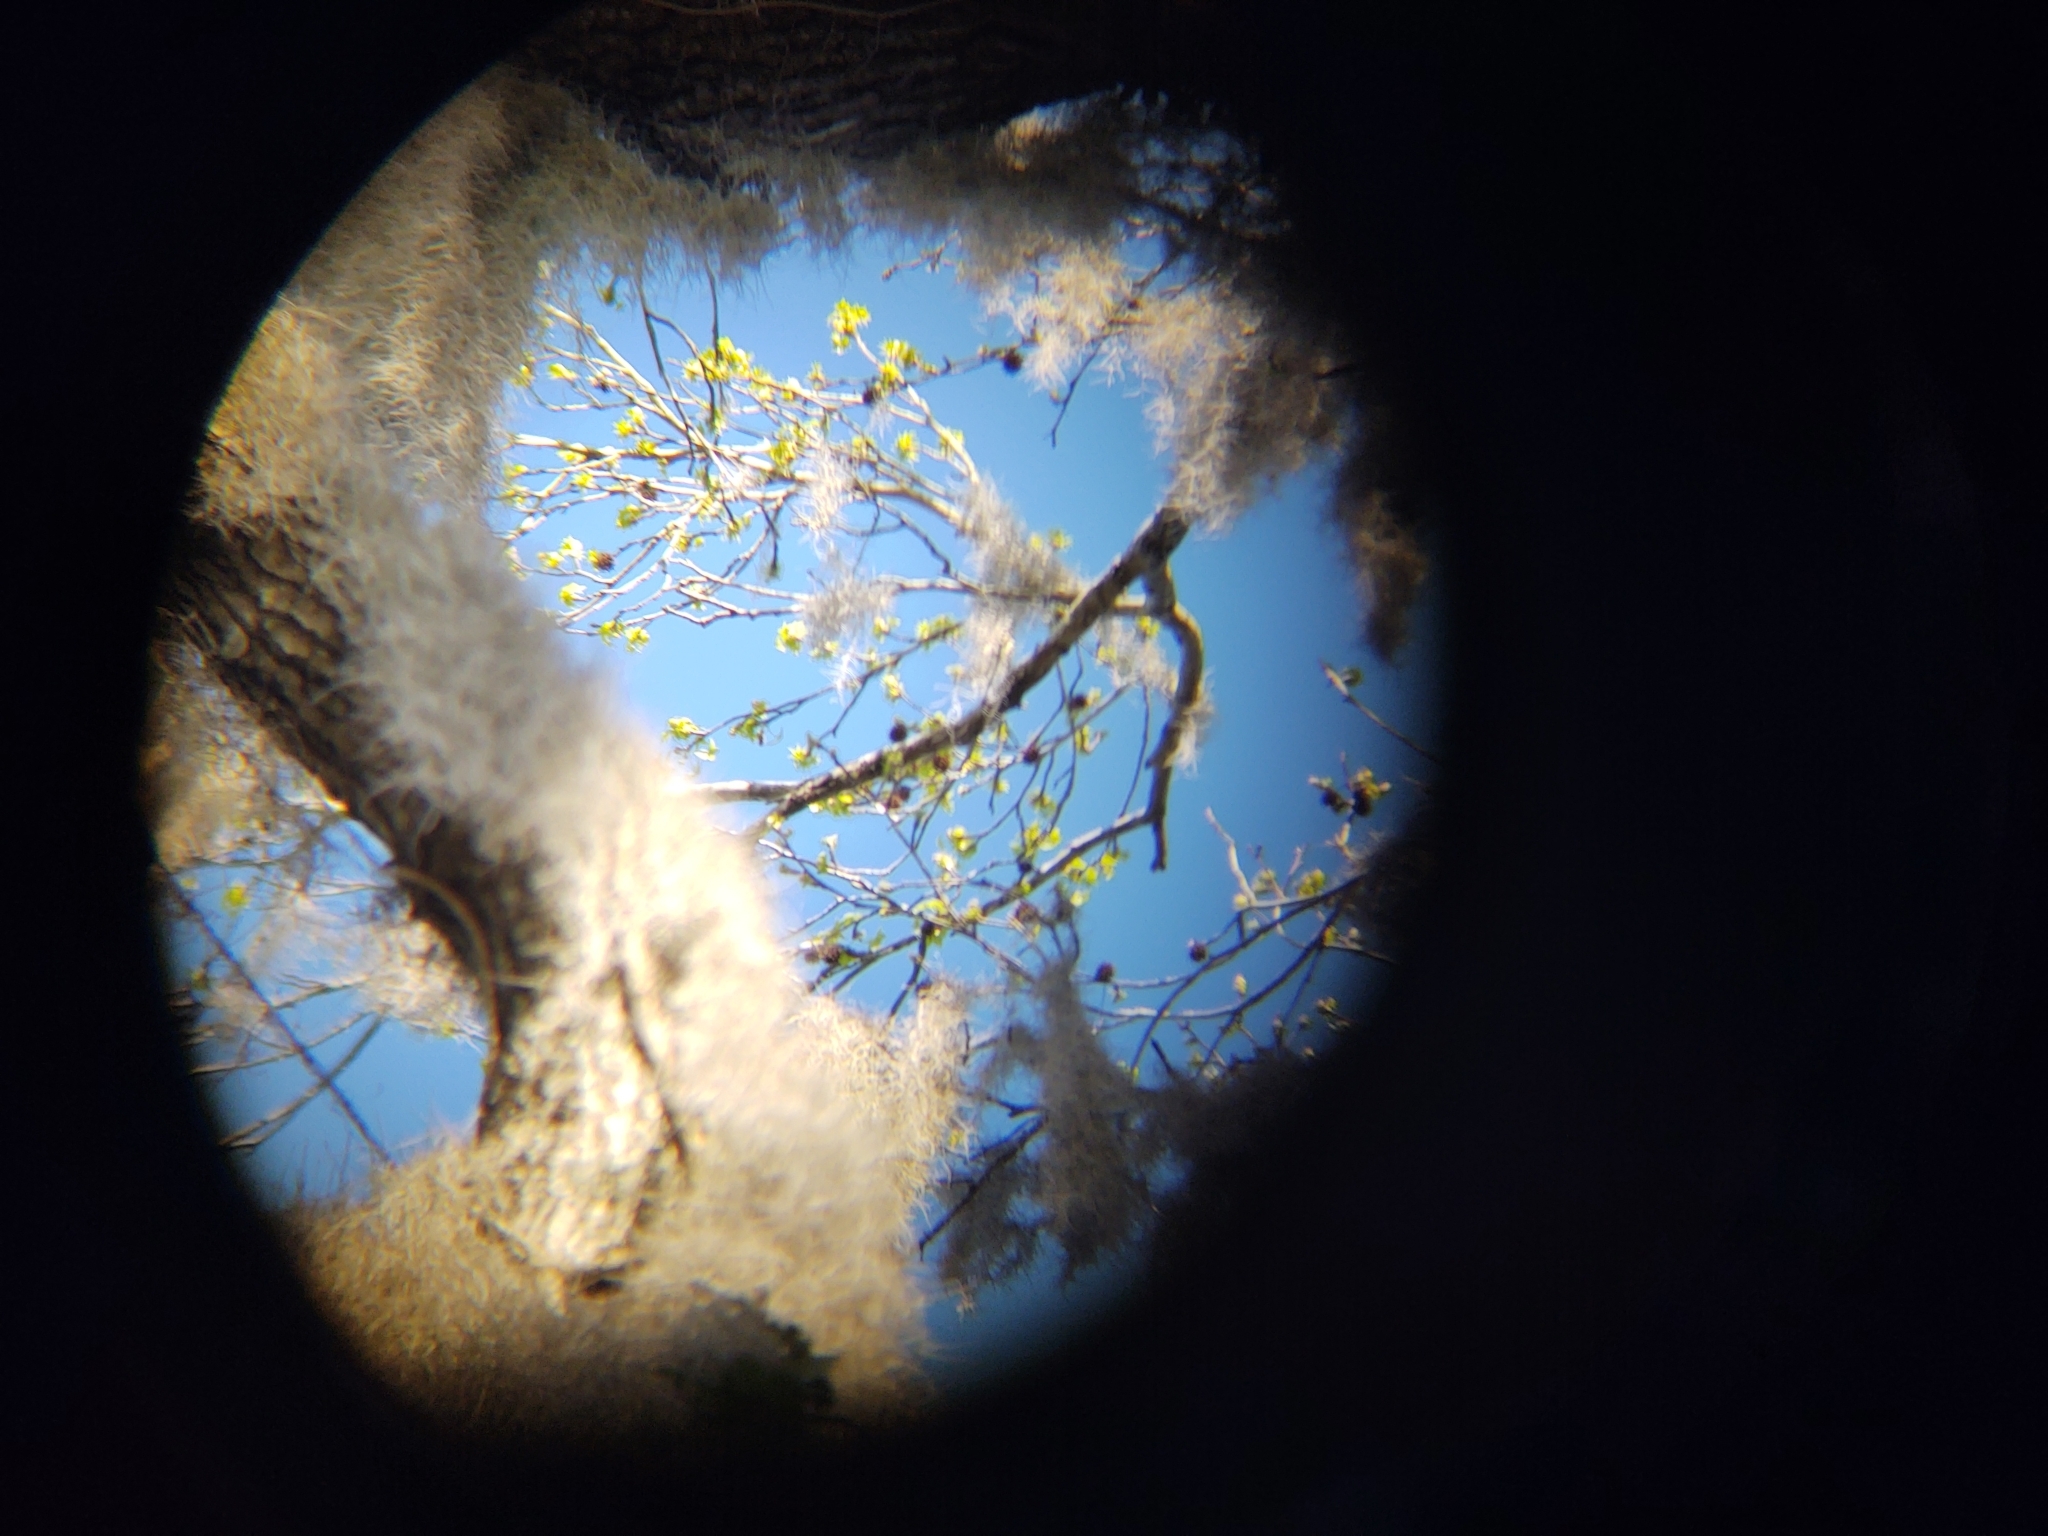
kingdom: Plantae
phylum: Tracheophyta
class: Magnoliopsida
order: Saxifragales
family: Altingiaceae
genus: Liquidambar
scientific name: Liquidambar styraciflua
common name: Sweet gum
